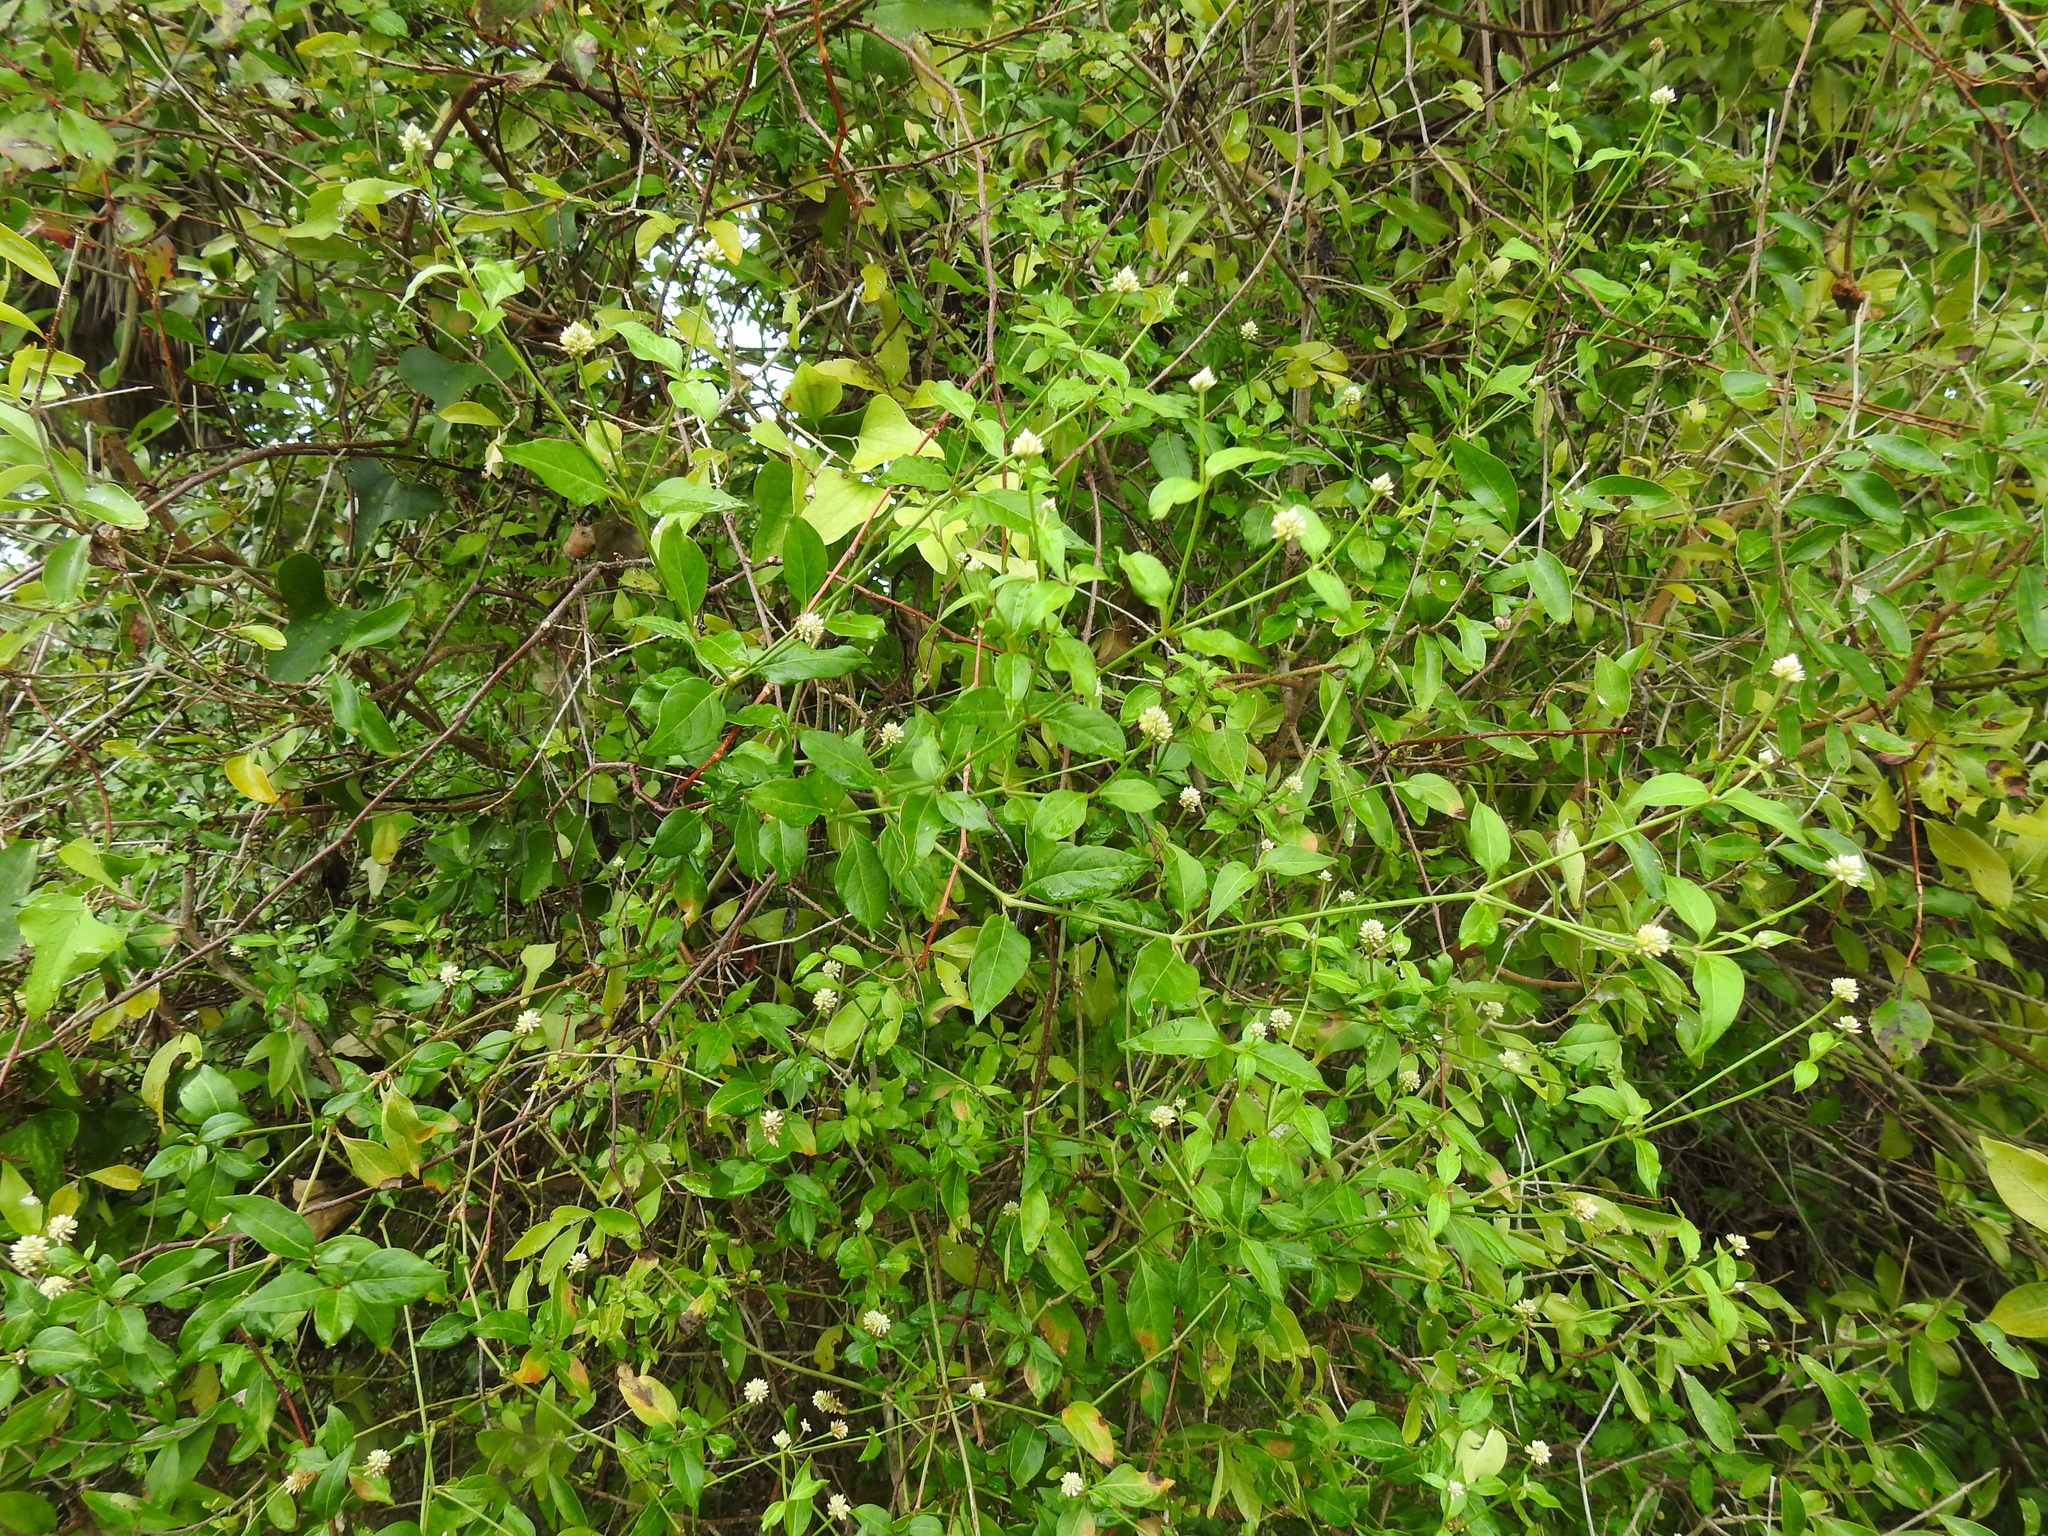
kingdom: Plantae
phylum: Tracheophyta
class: Magnoliopsida
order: Caryophyllales
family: Amaranthaceae
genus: Alternanthera
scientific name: Alternanthera flavescens
